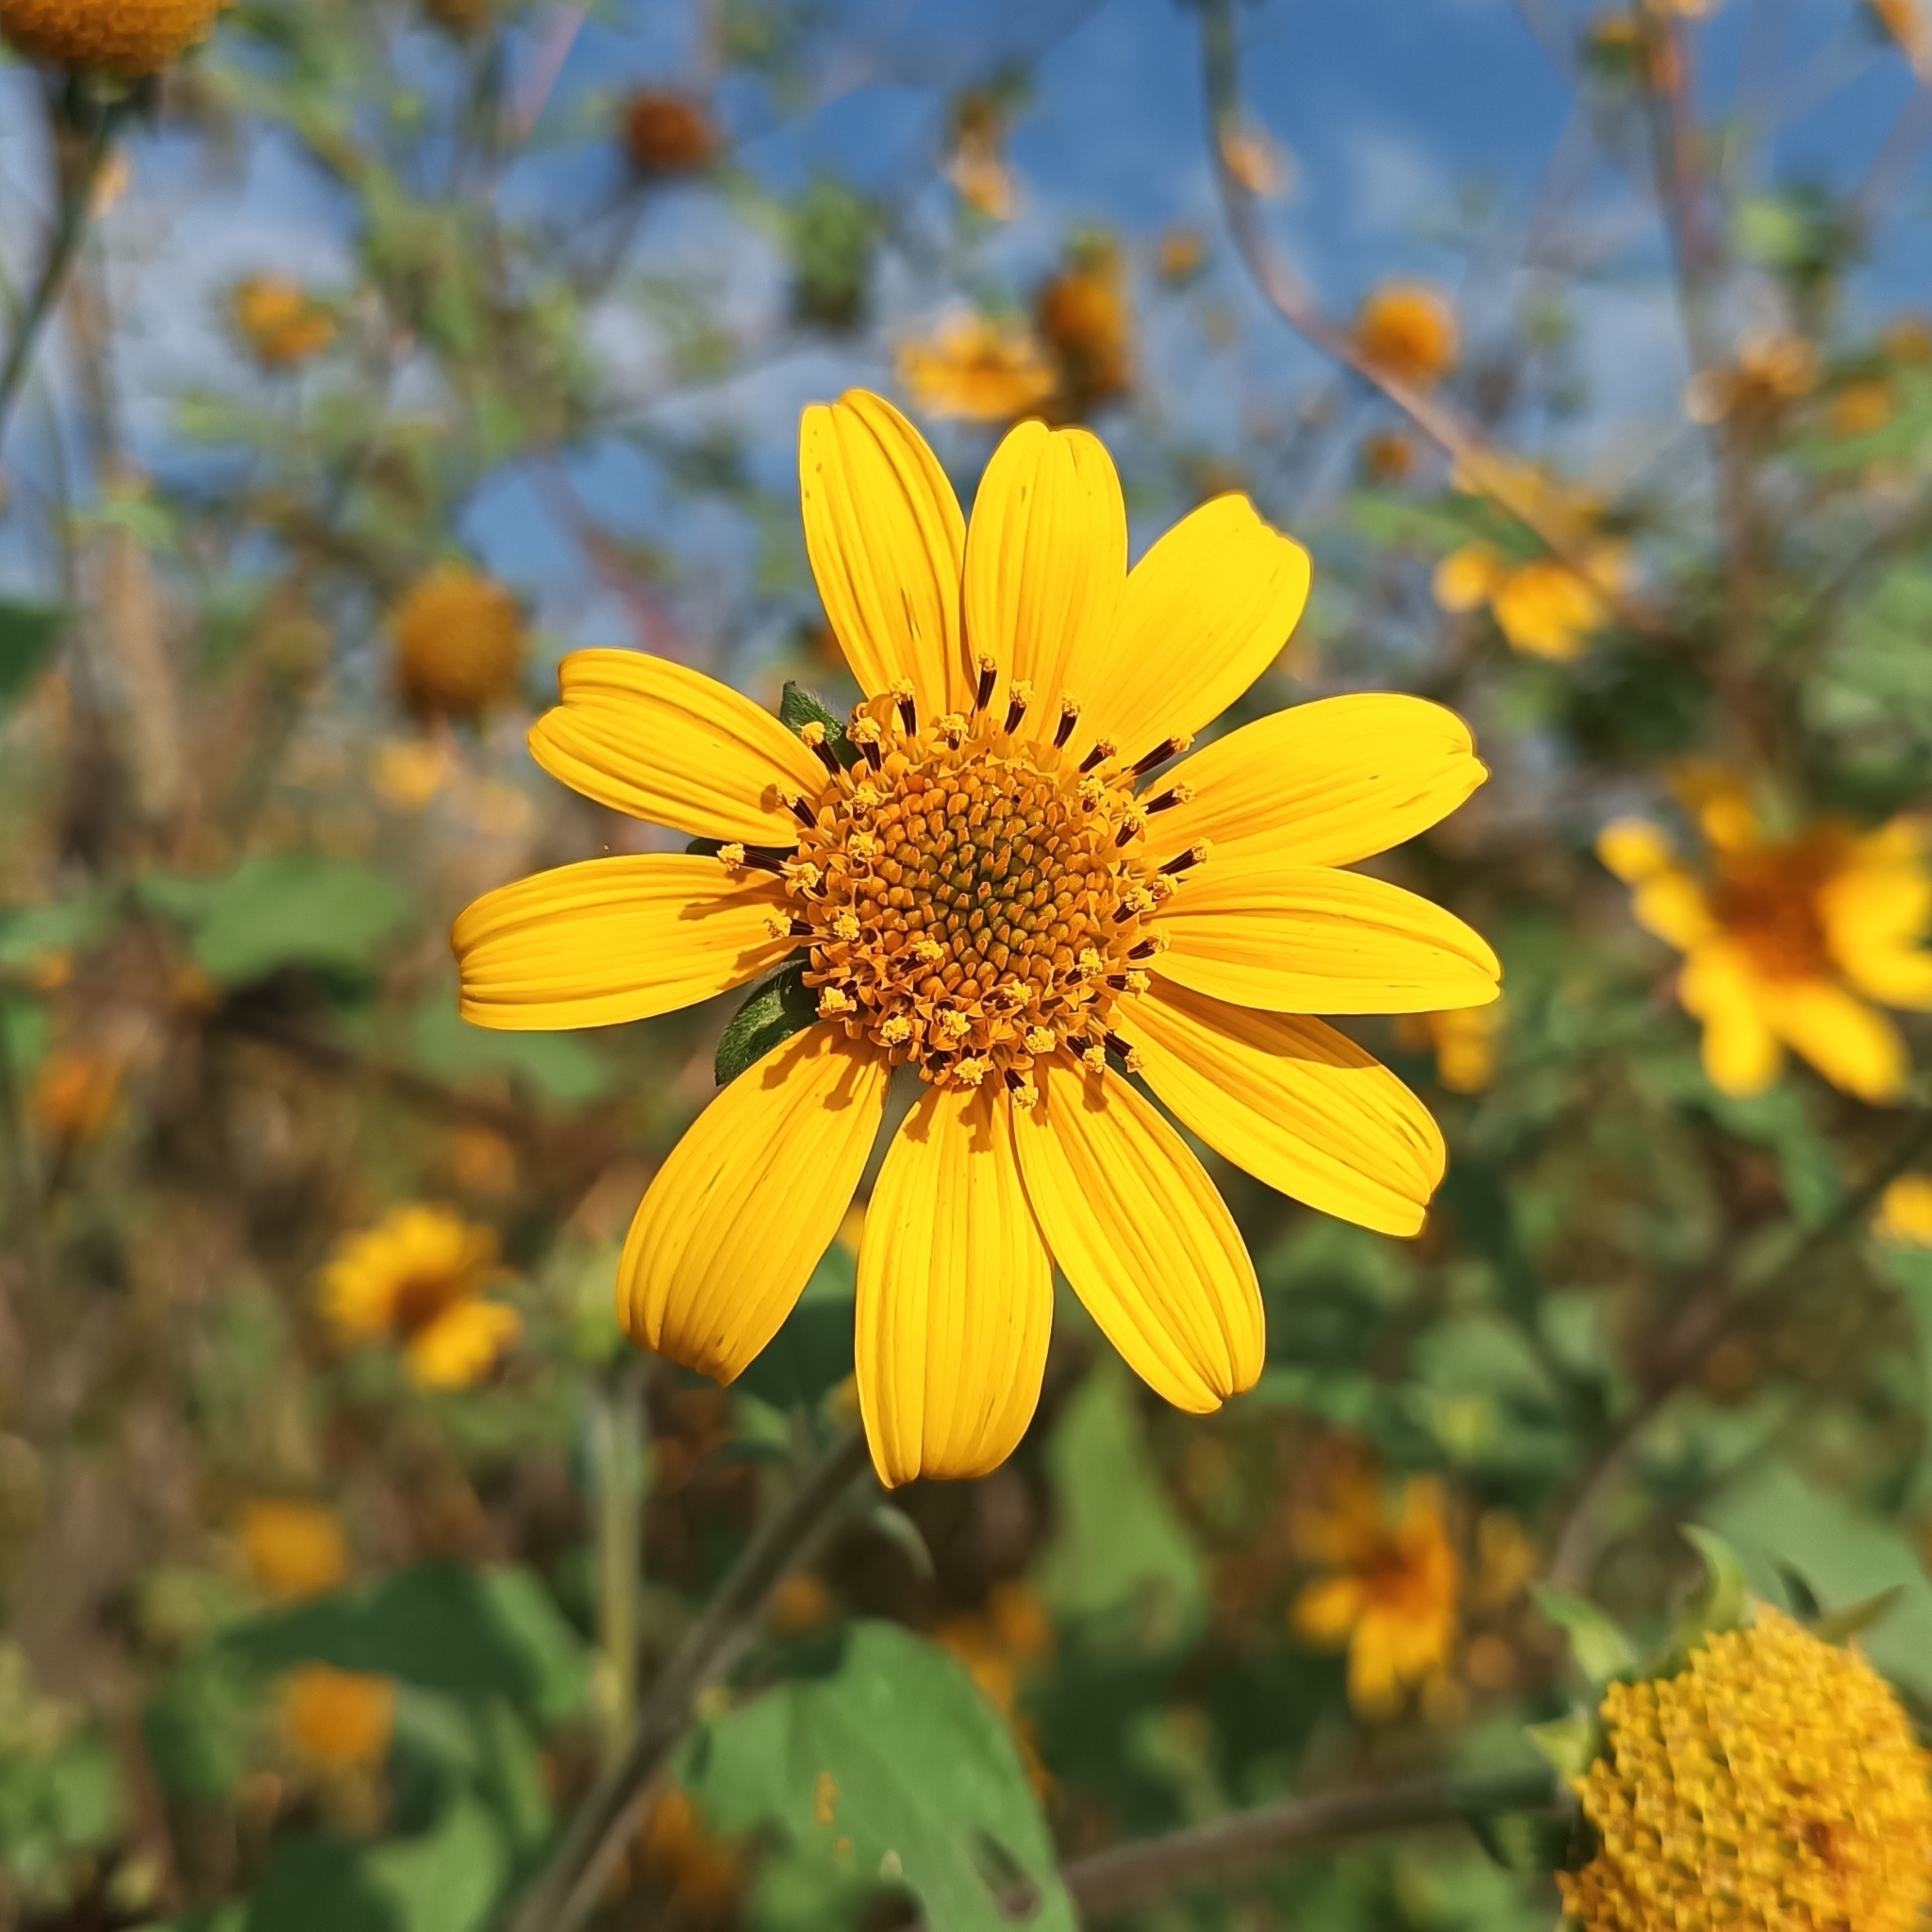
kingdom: Plantae
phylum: Tracheophyta
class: Magnoliopsida
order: Asterales
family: Asteraceae
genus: Tithonia
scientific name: Tithonia tubaeformis
